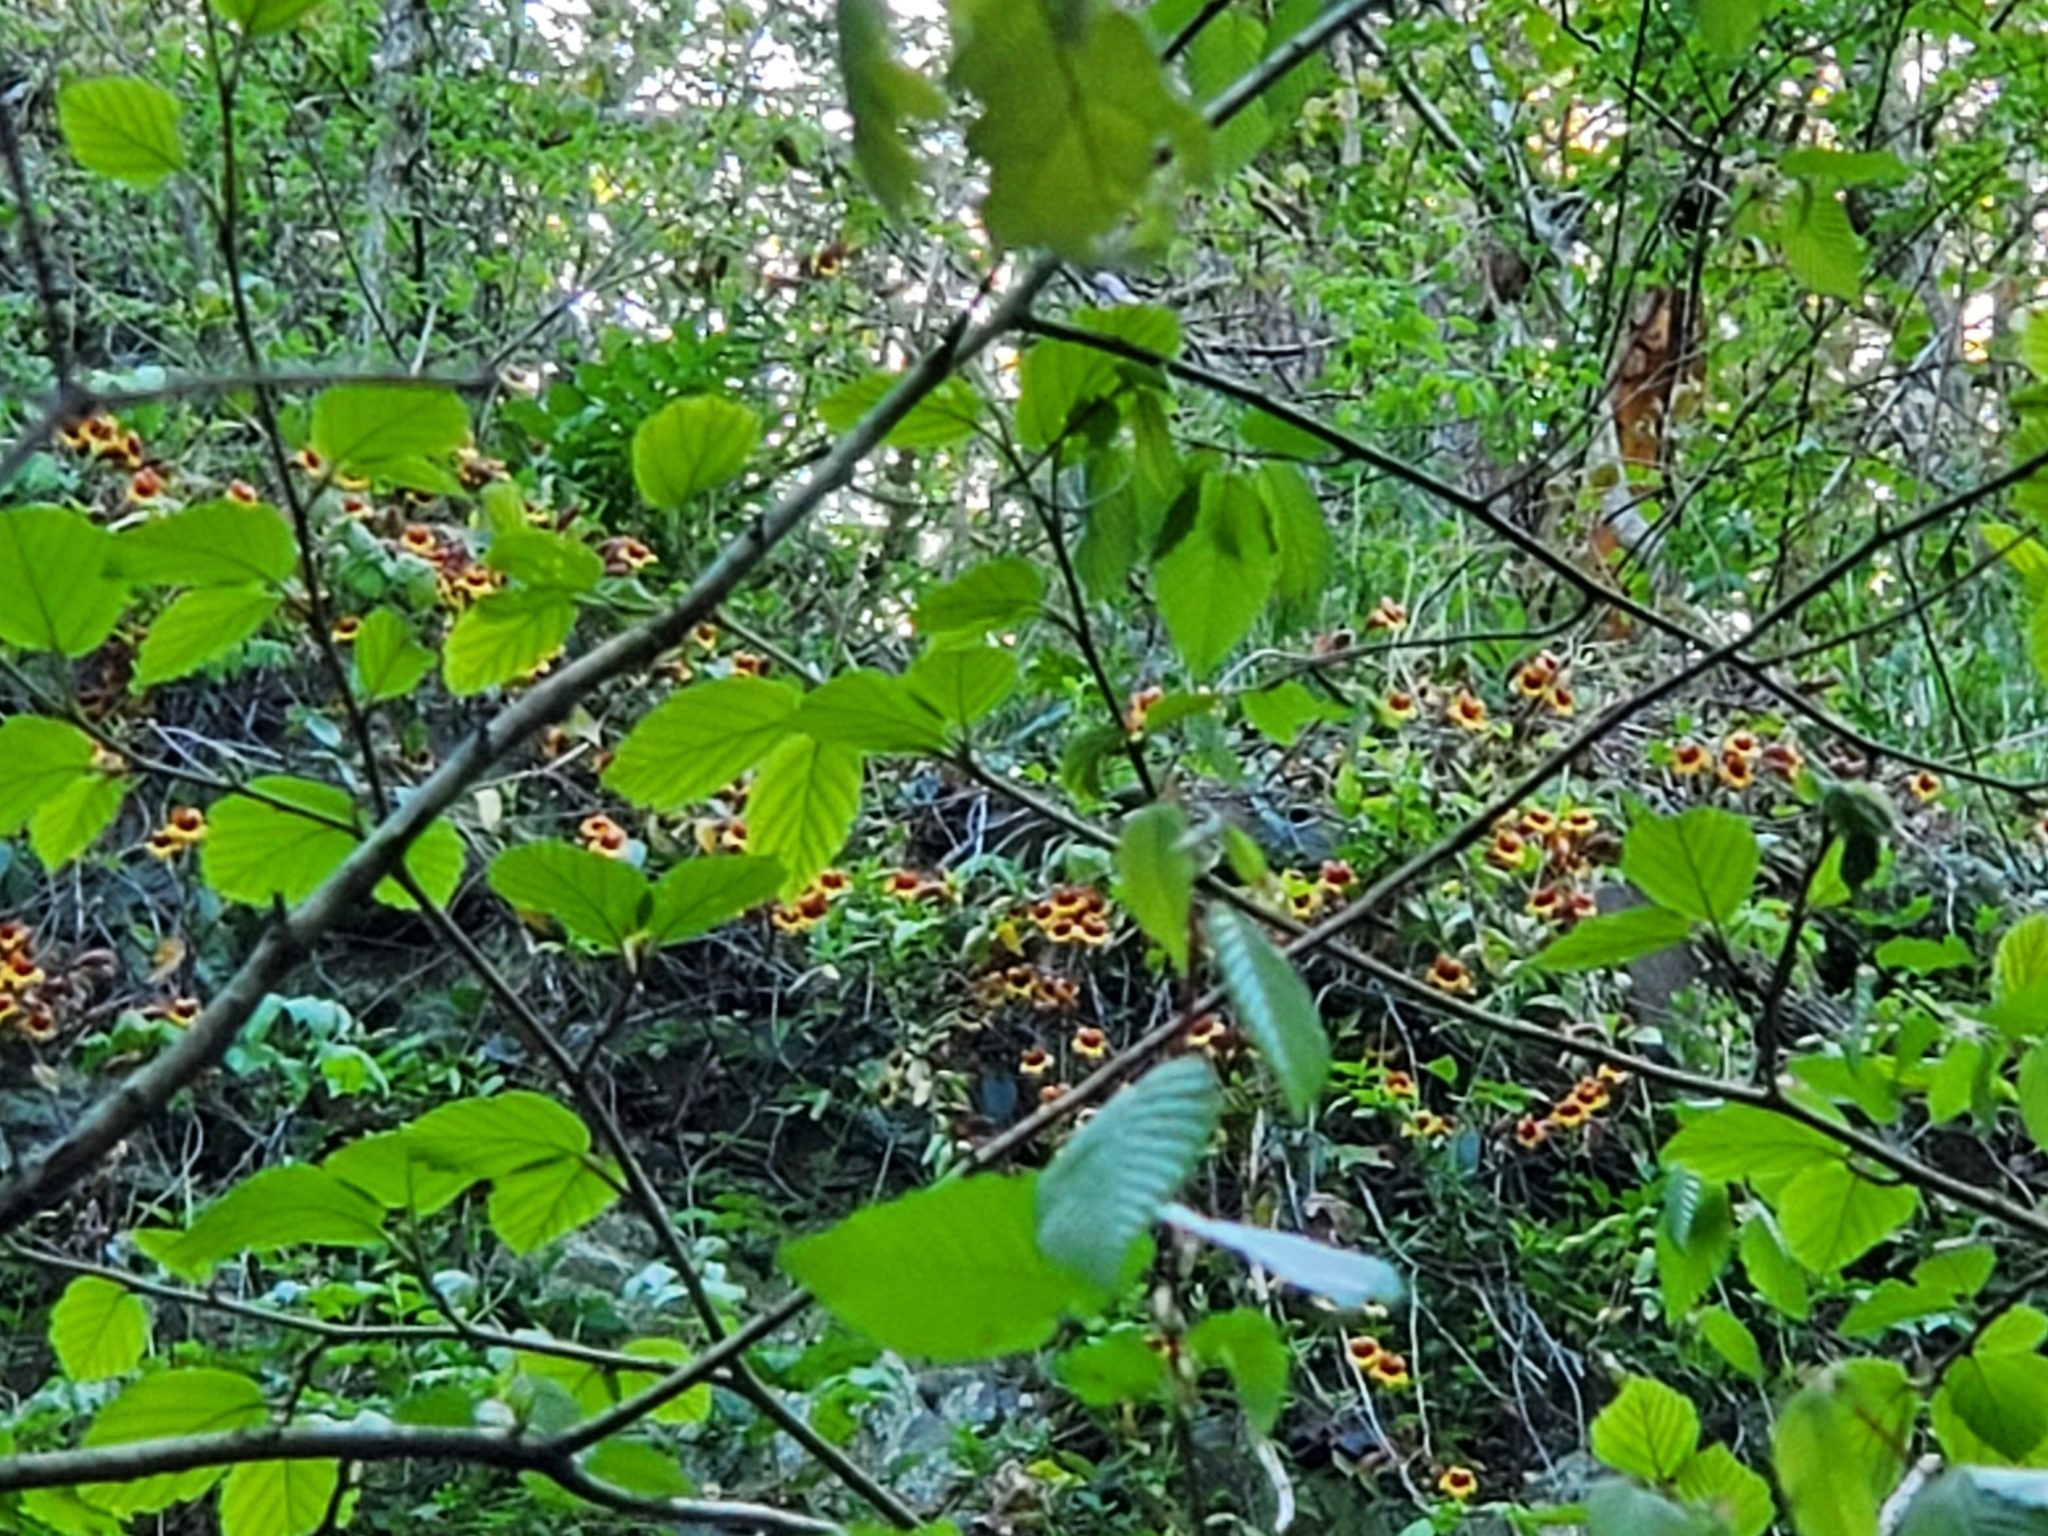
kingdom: Plantae
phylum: Tracheophyta
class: Magnoliopsida
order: Lamiales
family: Bignoniaceae
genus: Bignonia
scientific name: Bignonia capreolata
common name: Crossvine
